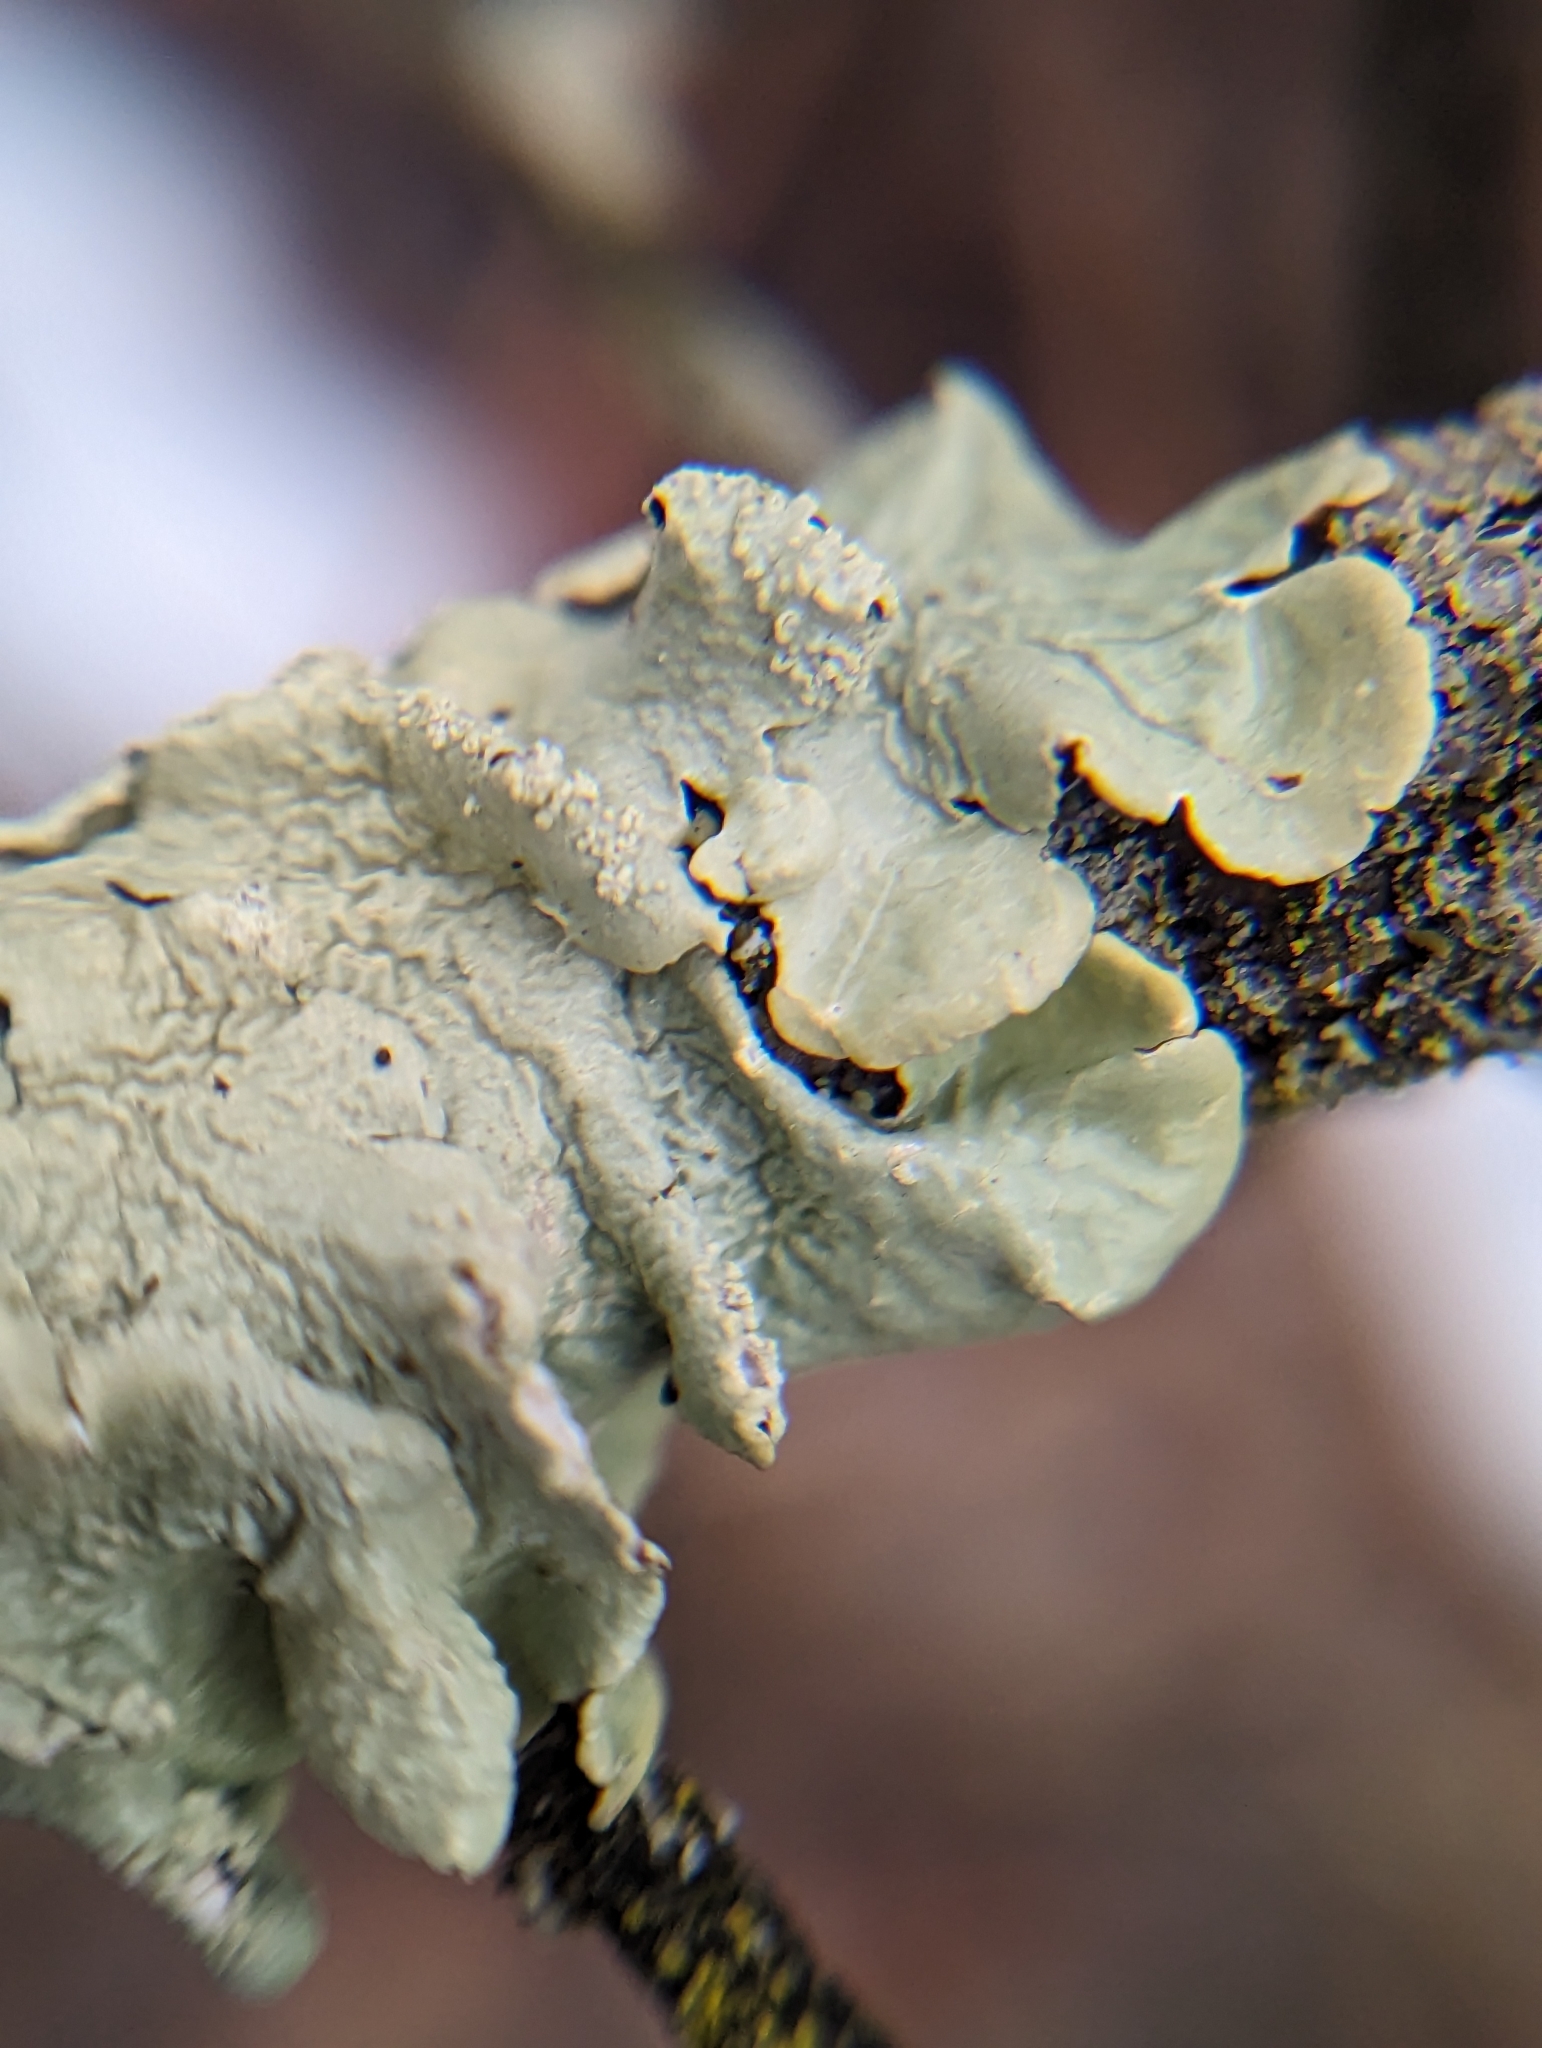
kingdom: Fungi
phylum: Ascomycota
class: Lecanoromycetes
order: Lecanorales
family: Parmeliaceae
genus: Flavopunctelia
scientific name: Flavopunctelia soredica
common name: Powder-edged speckled greenshield
